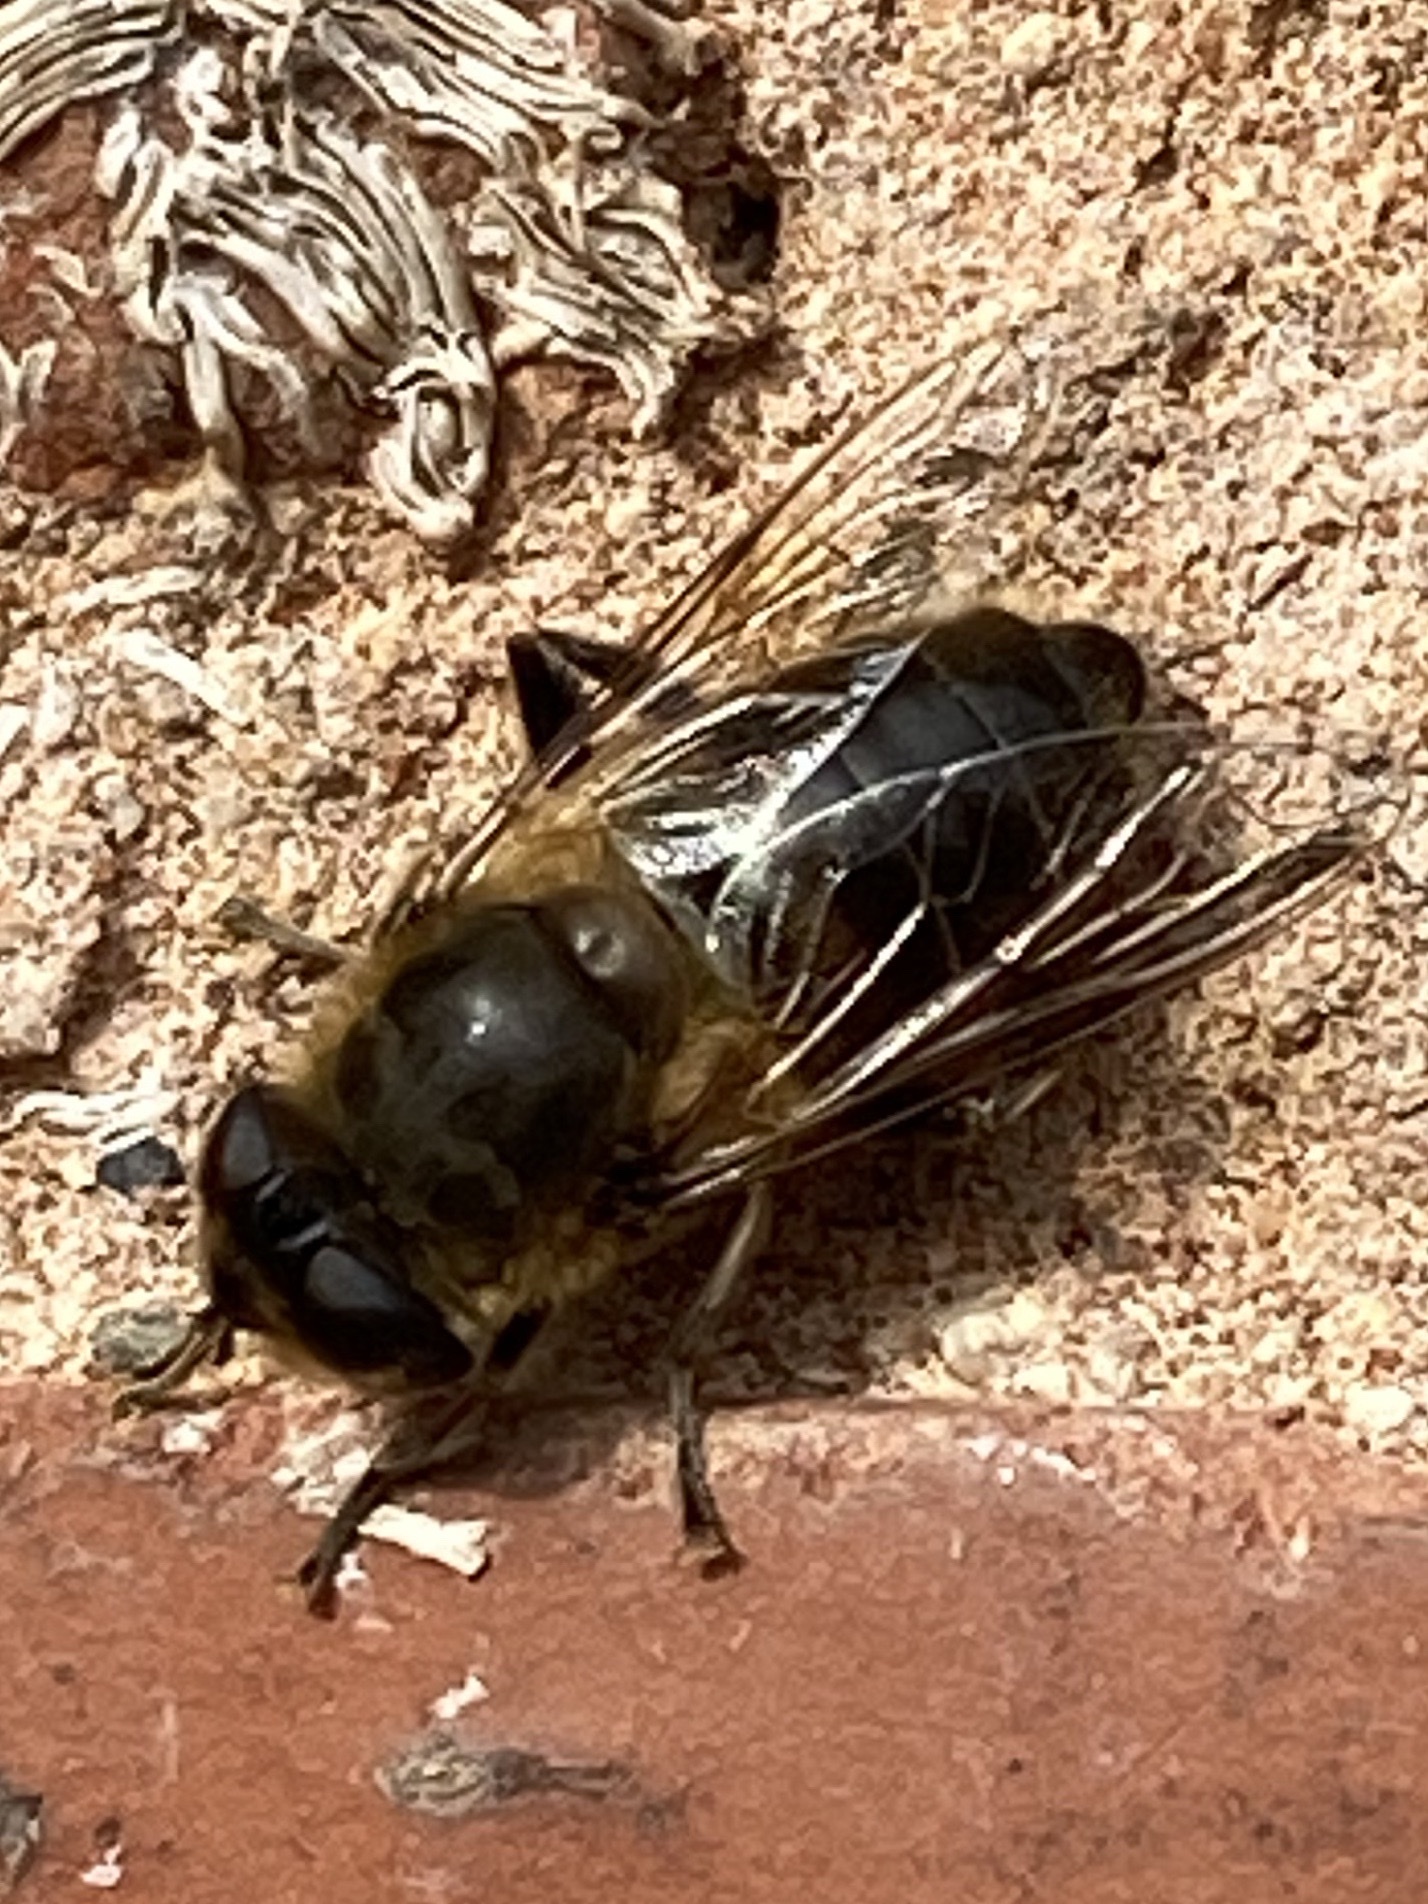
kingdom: Animalia
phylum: Arthropoda
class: Insecta
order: Diptera
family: Syrphidae
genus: Eristalis
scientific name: Eristalis tenax
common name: Drone fly
